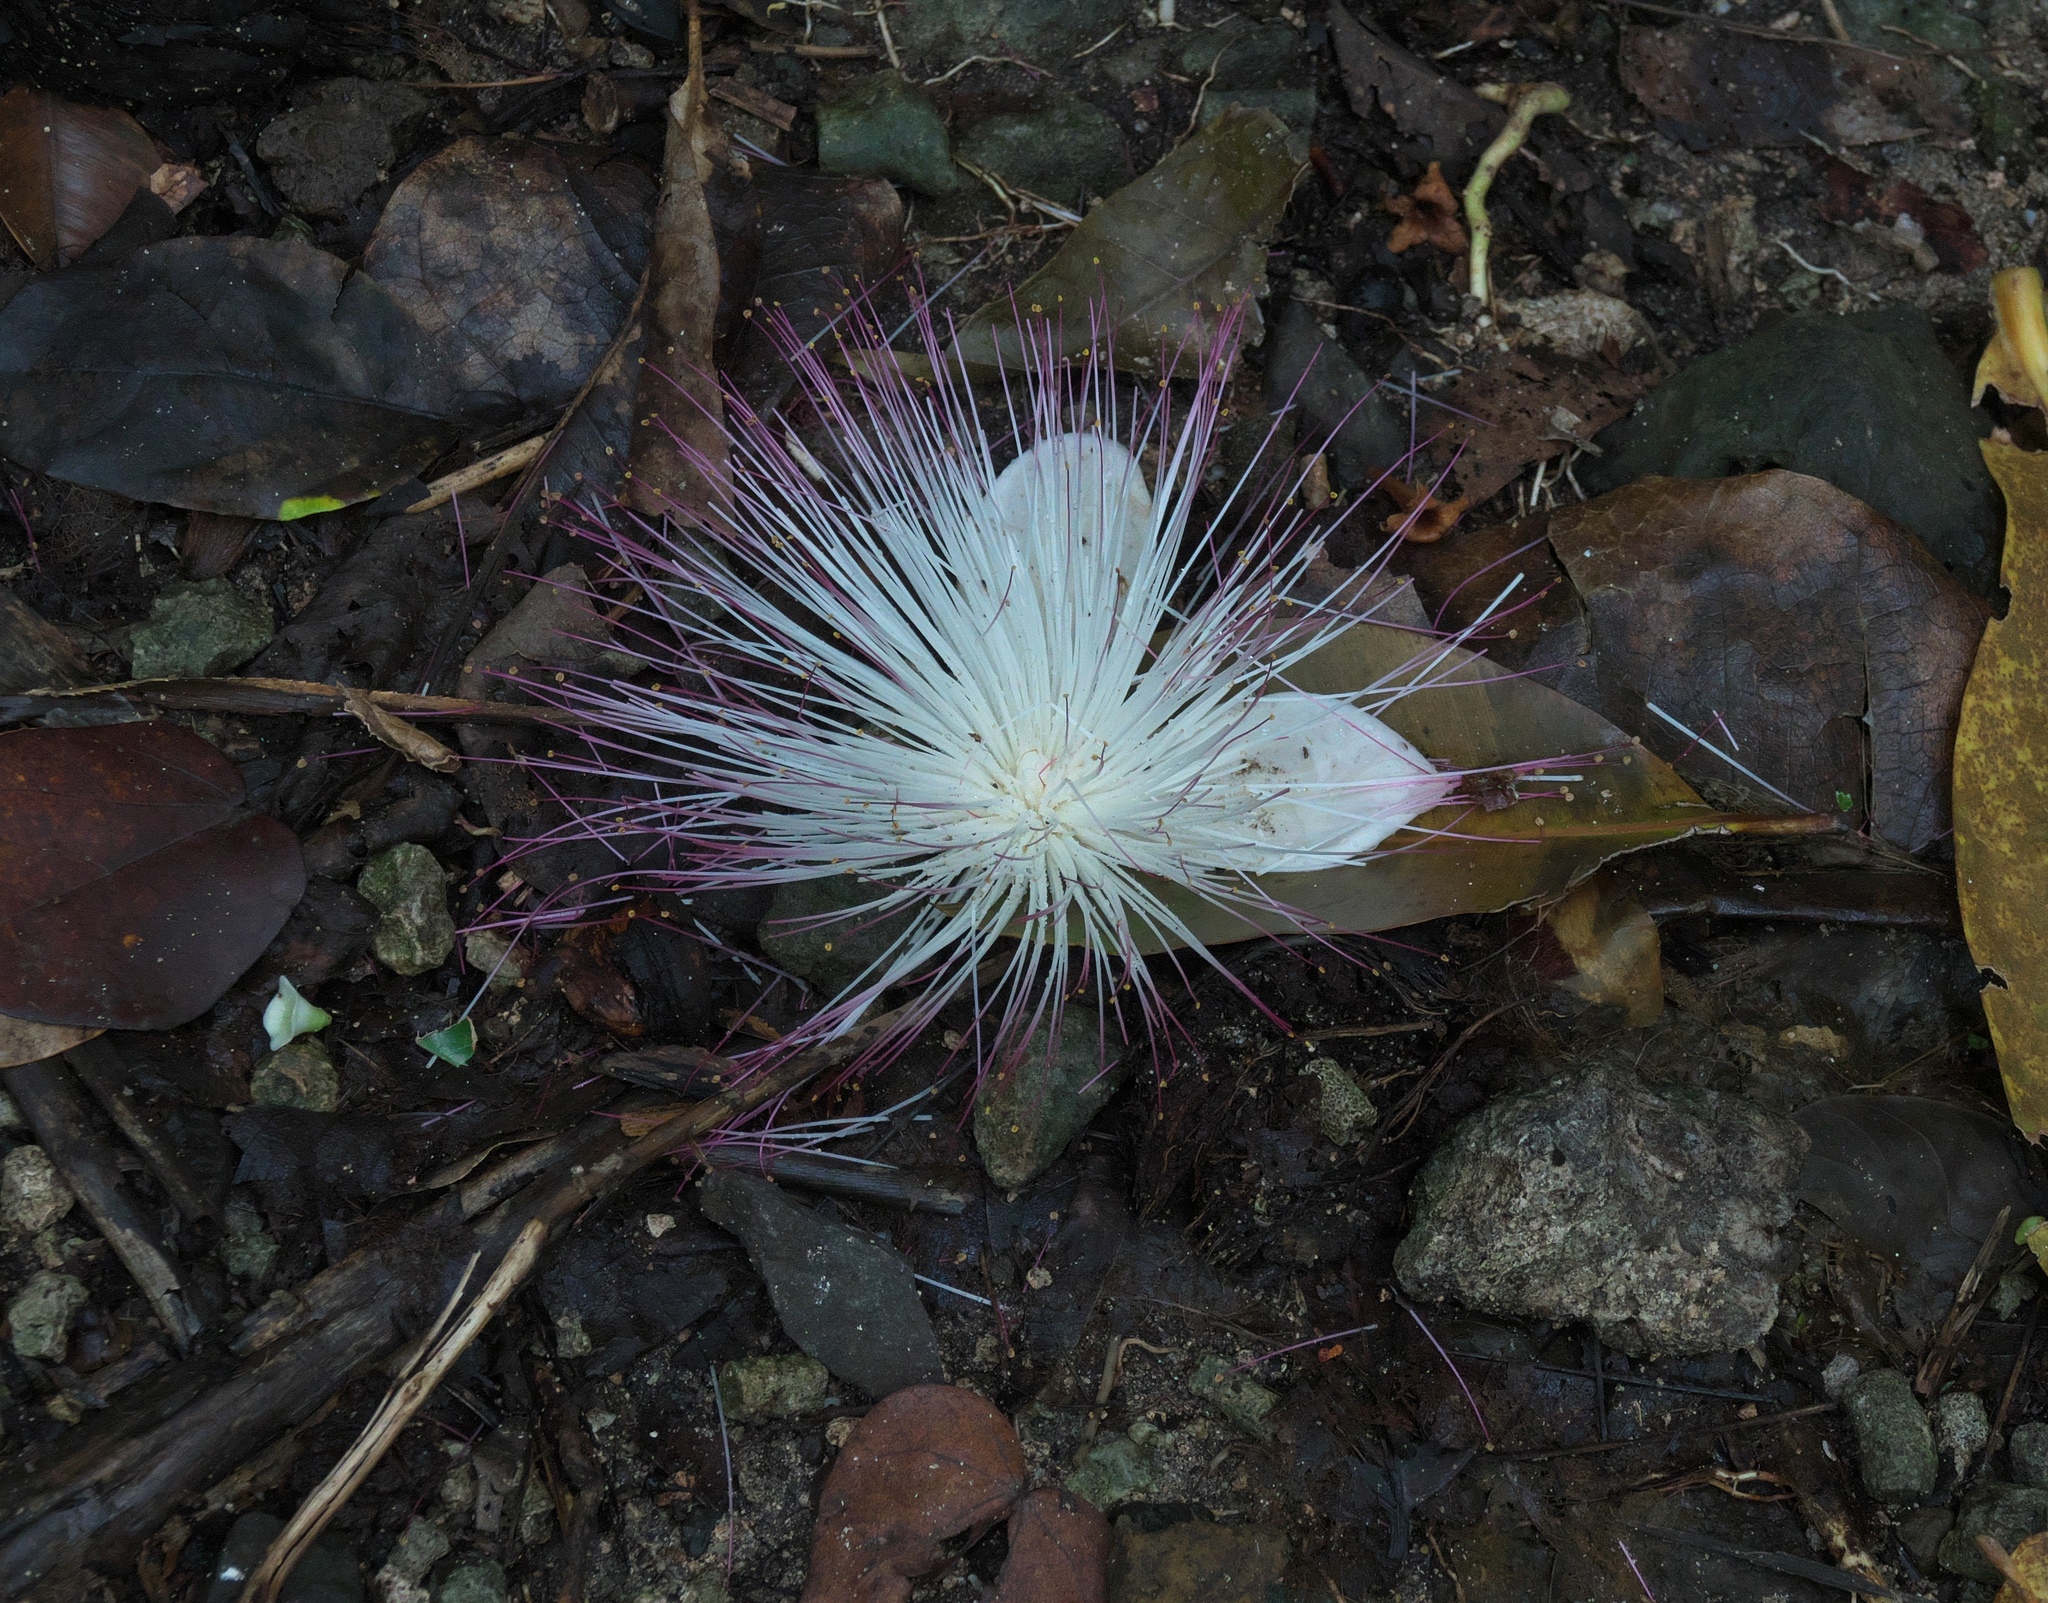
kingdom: Plantae
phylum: Tracheophyta
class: Magnoliopsida
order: Ericales
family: Lecythidaceae
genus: Barringtonia
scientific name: Barringtonia asiatica
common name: Mango-pine
